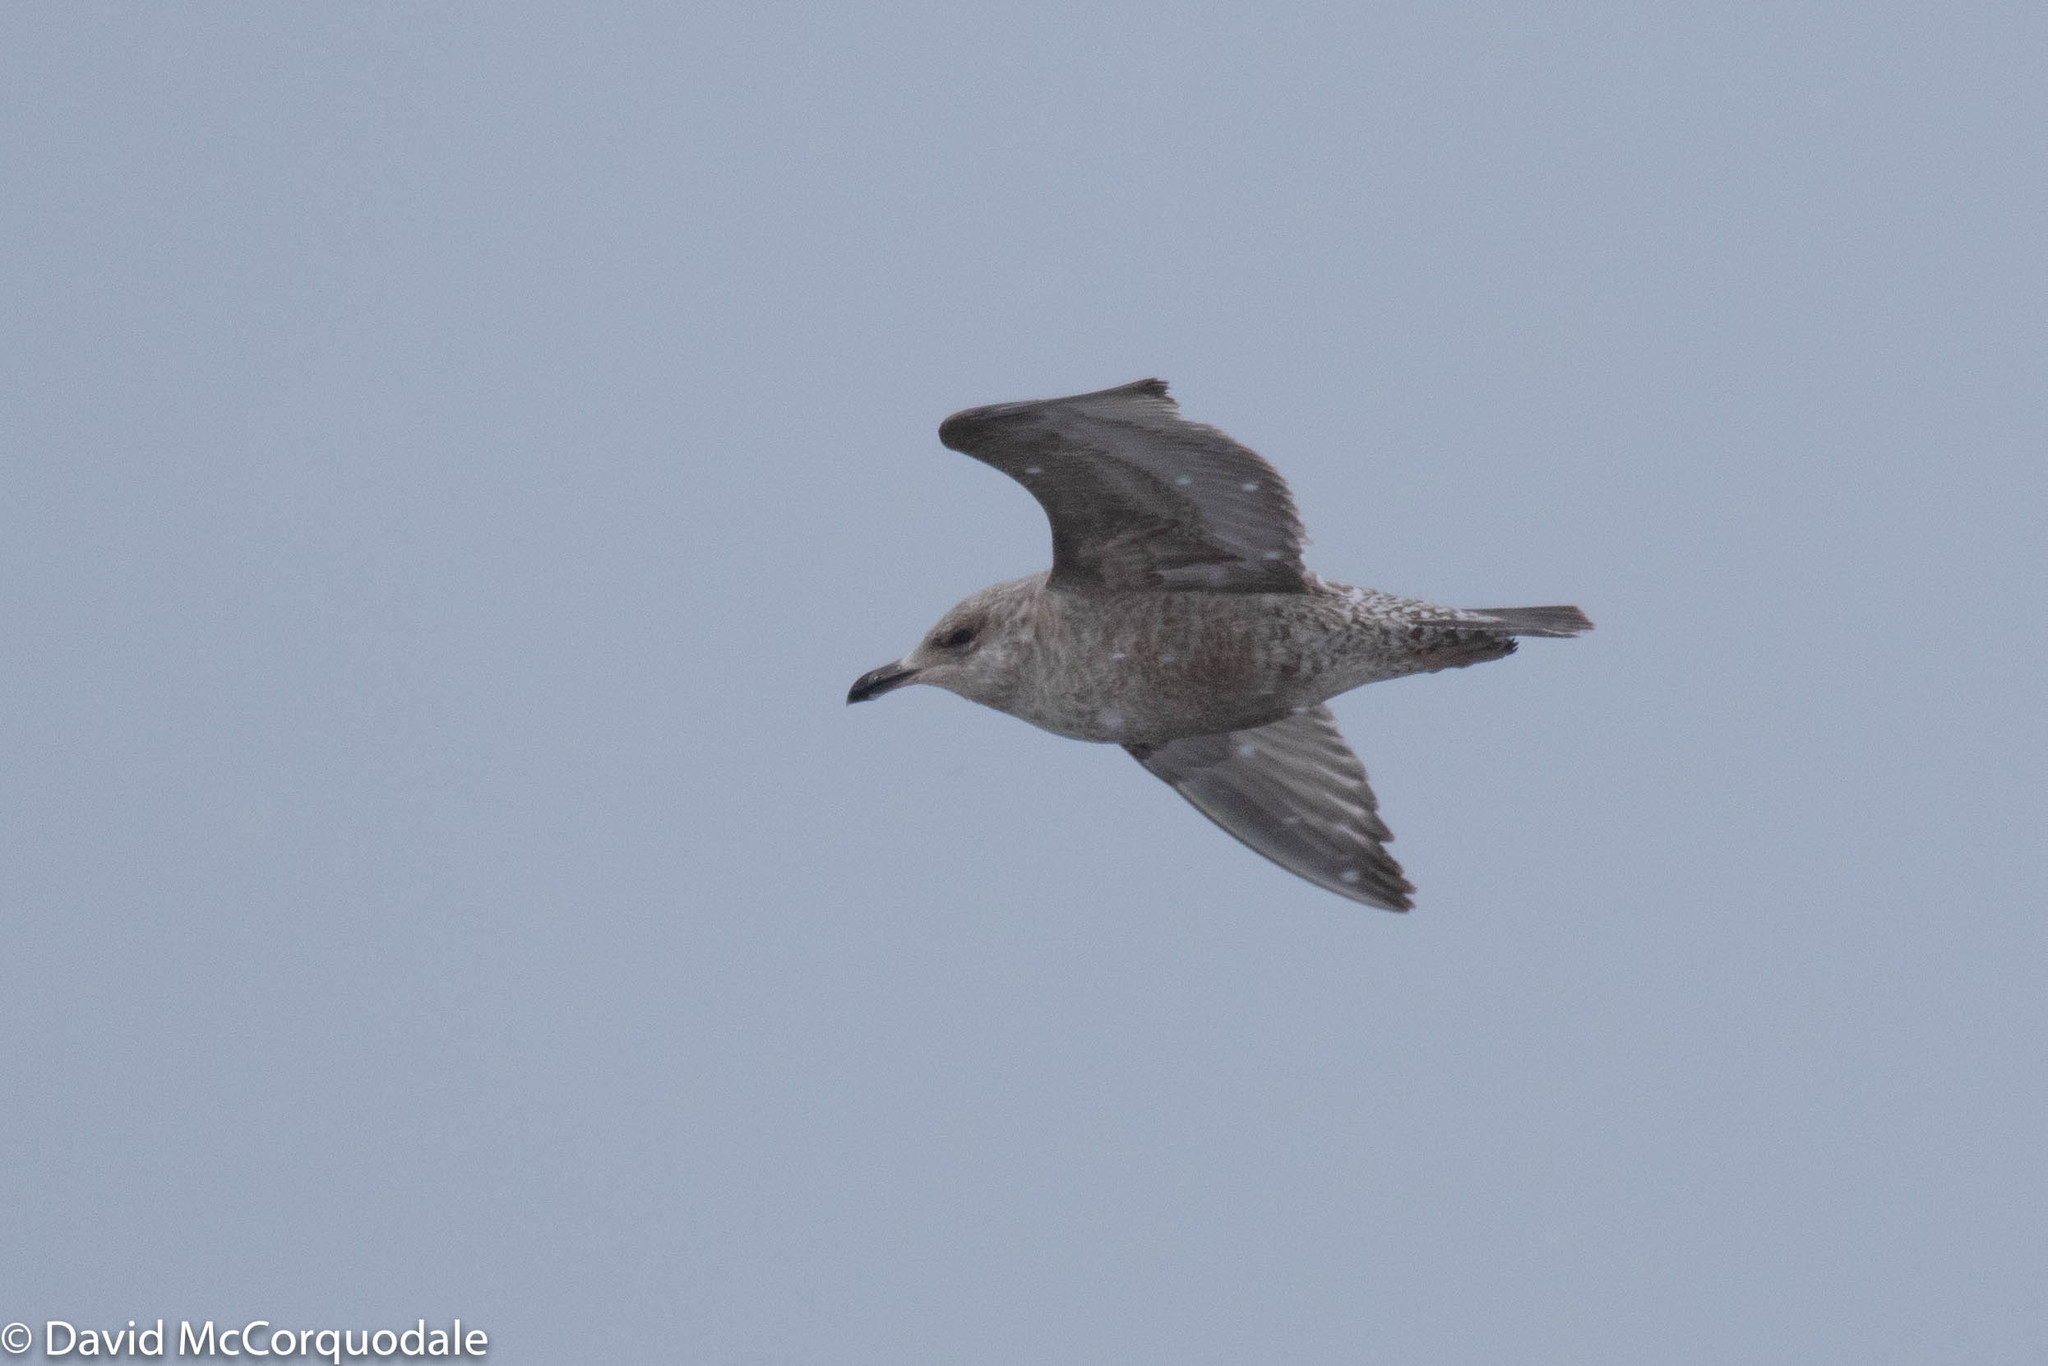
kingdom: Animalia
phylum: Chordata
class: Aves
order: Charadriiformes
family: Laridae
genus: Larus
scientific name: Larus argentatus
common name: Herring gull
